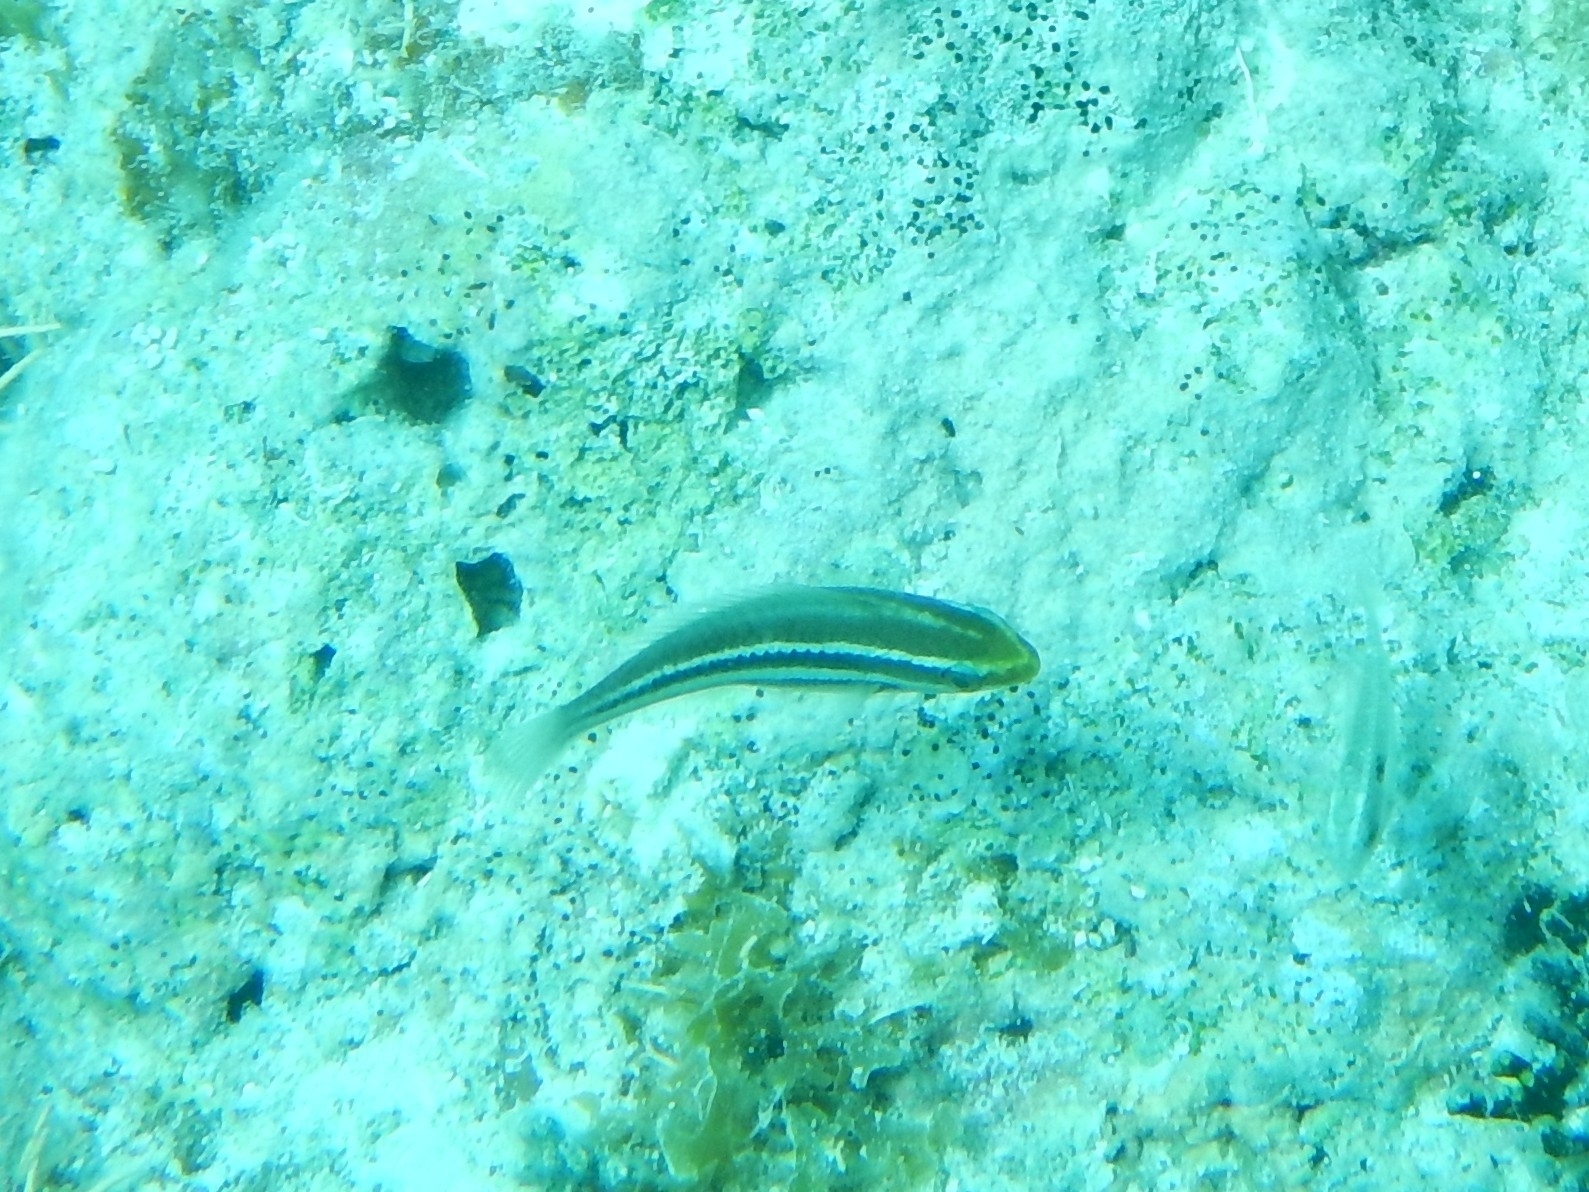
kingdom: Animalia
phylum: Chordata
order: Perciformes
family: Scaridae
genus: Scarus
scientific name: Scarus iseri
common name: Striped parrotfish
